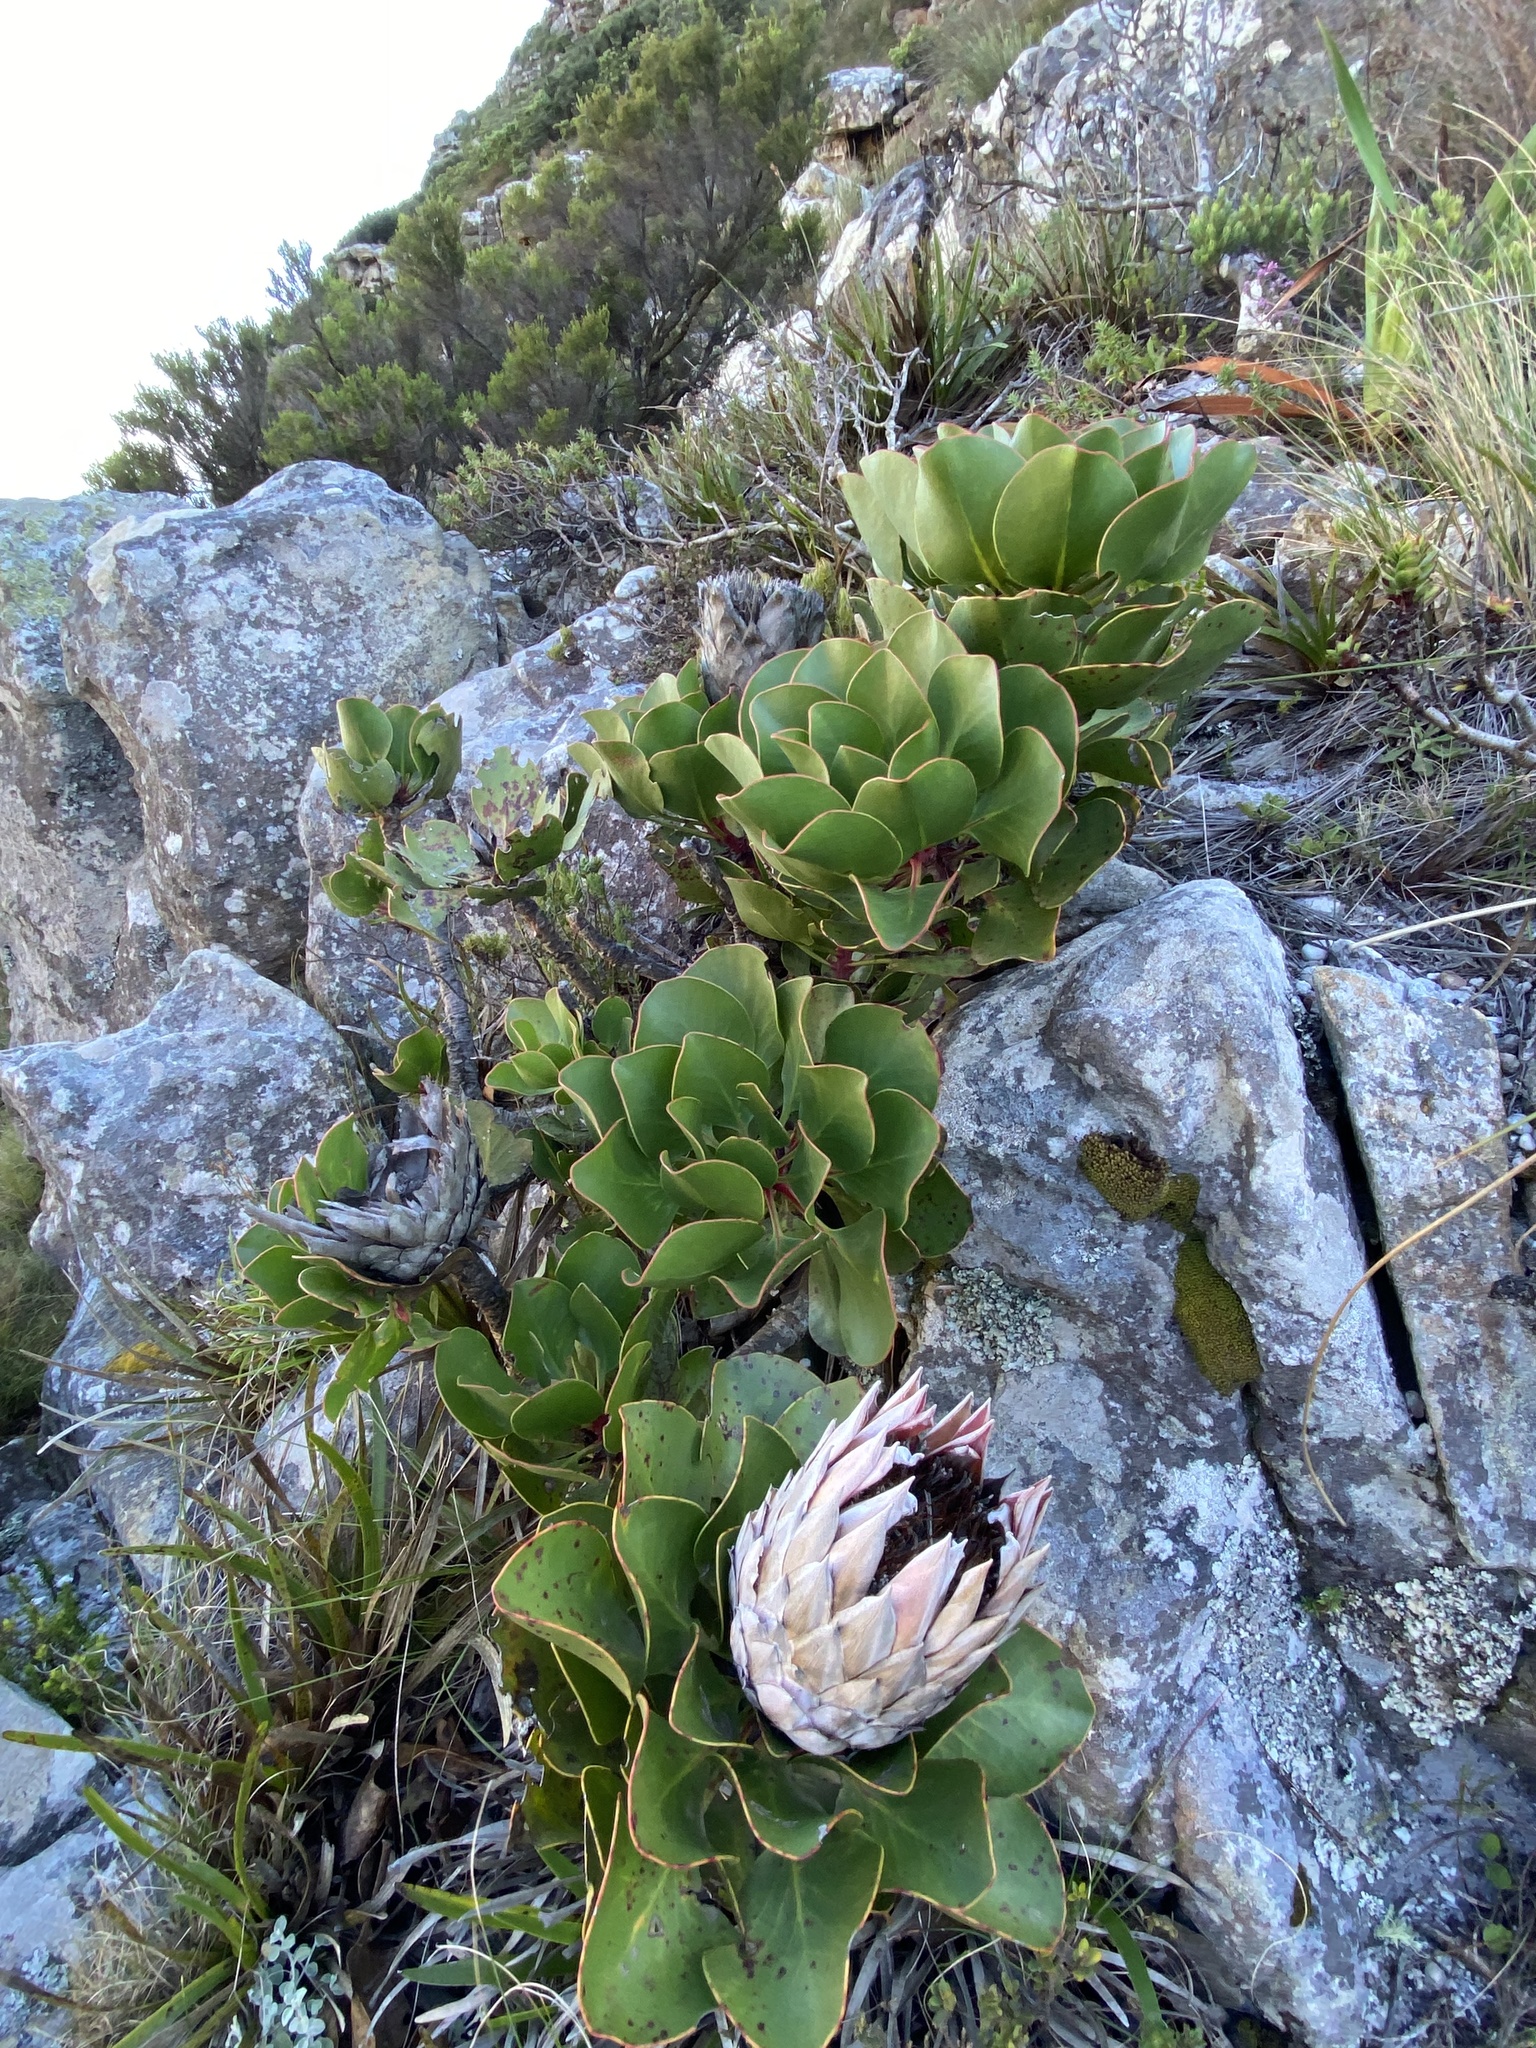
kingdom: Plantae
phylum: Tracheophyta
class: Magnoliopsida
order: Proteales
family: Proteaceae
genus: Protea
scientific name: Protea cynaroides
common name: King protea
